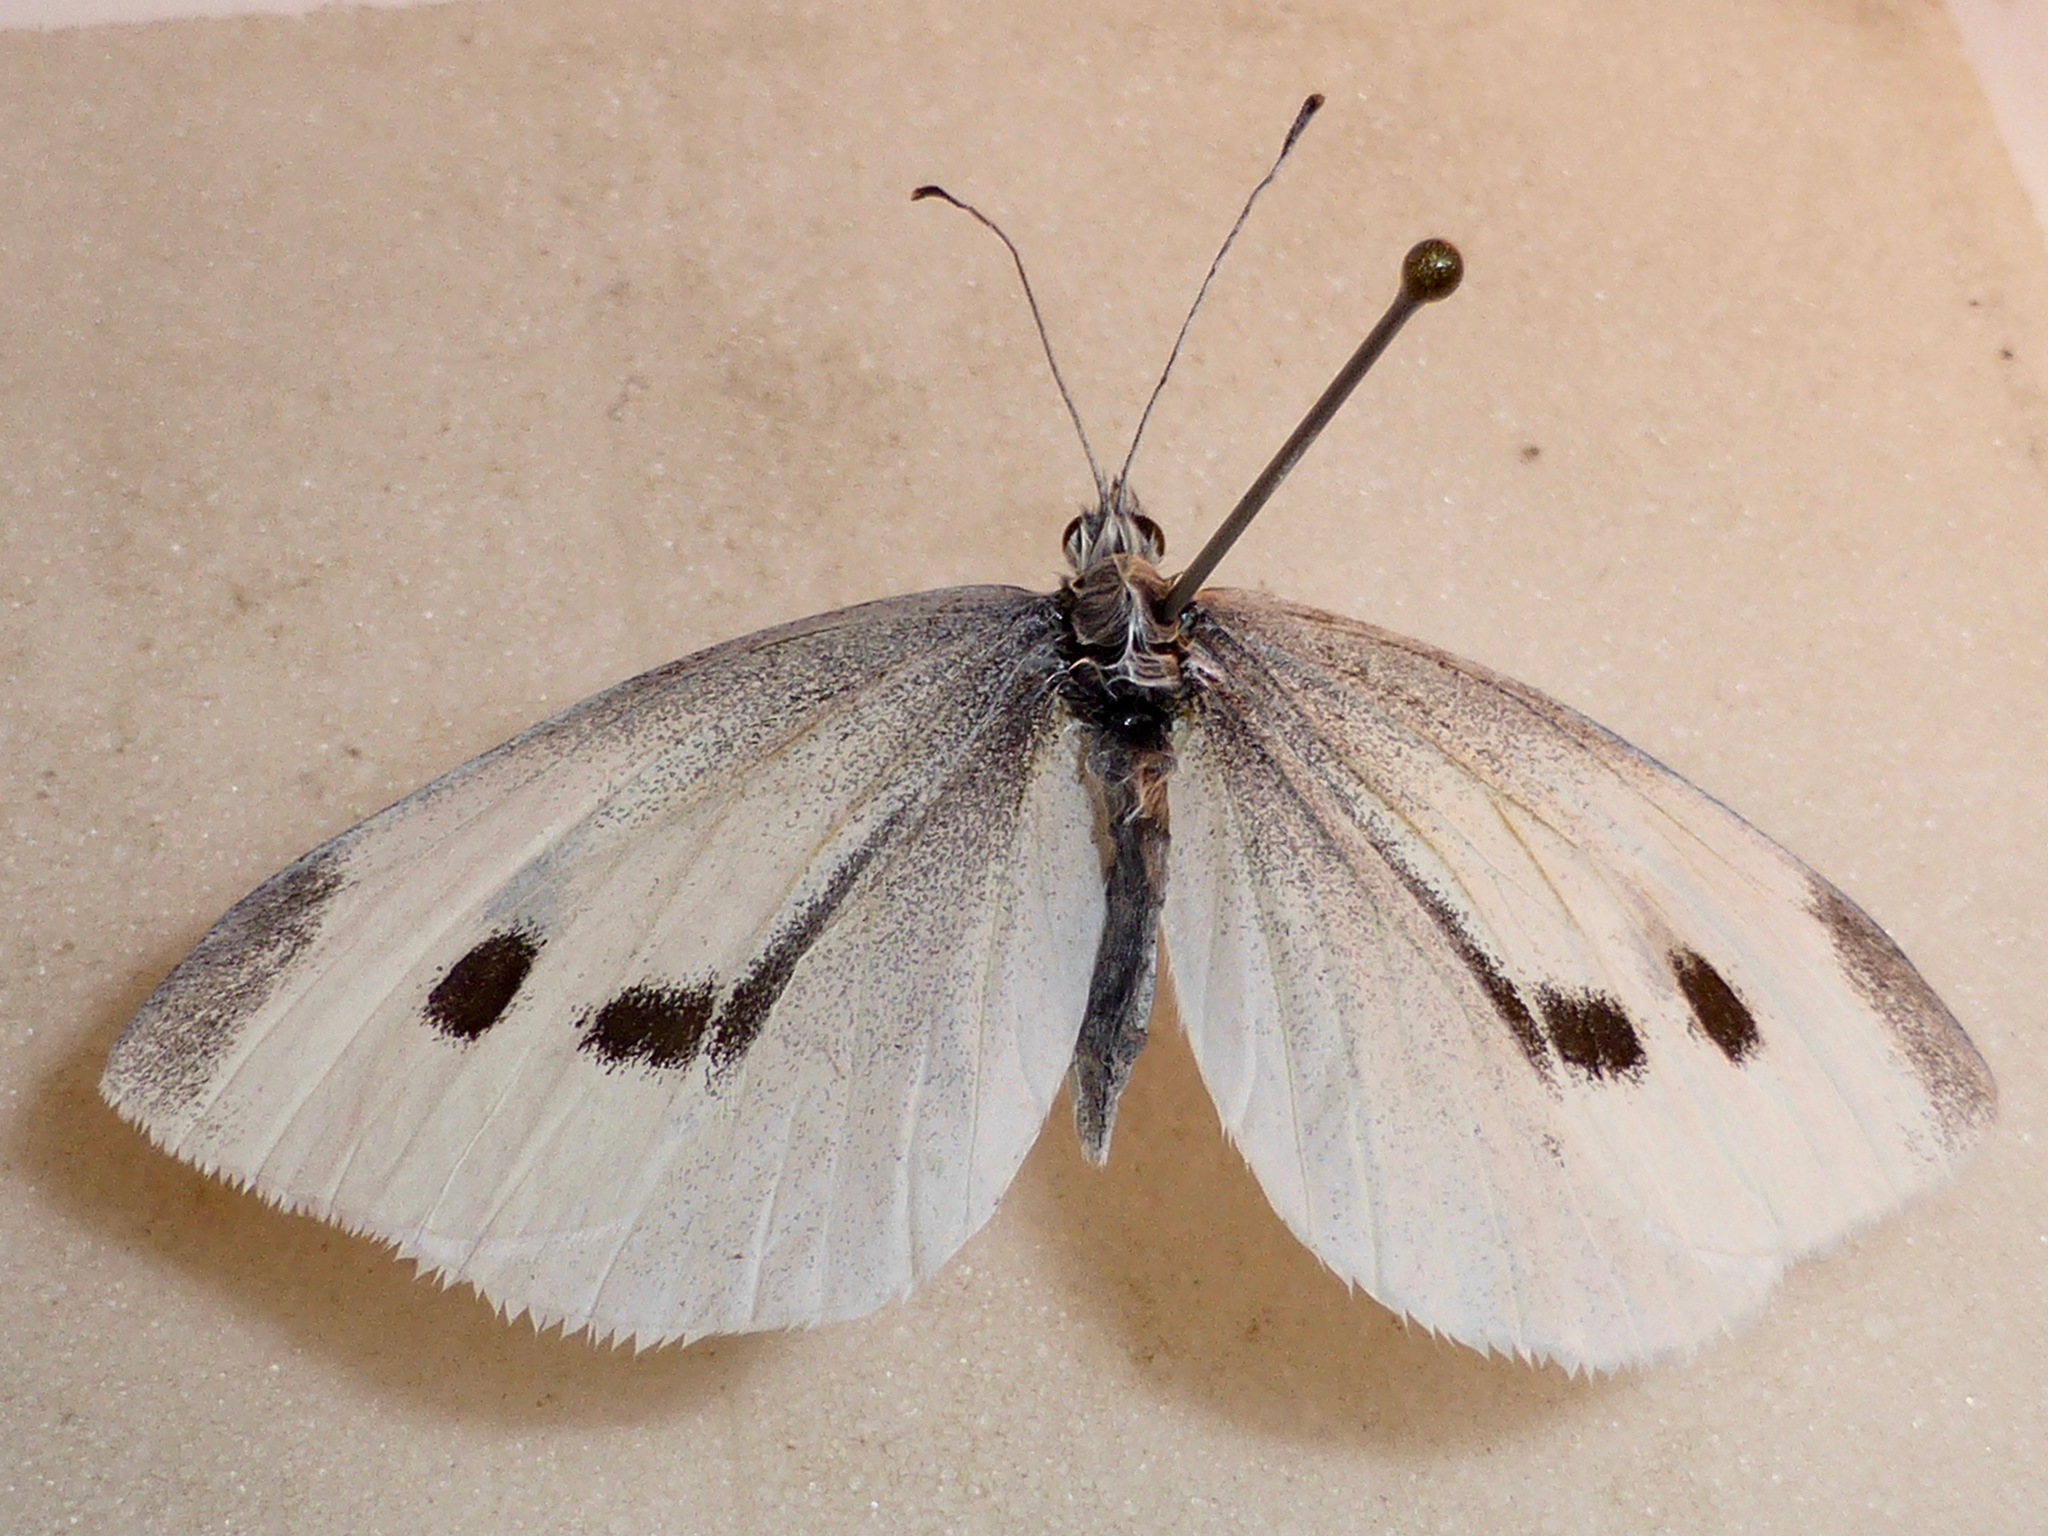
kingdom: Animalia
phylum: Arthropoda
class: Insecta
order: Lepidoptera
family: Pieridae
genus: Pieris
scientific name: Pieris rapae
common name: Small white
